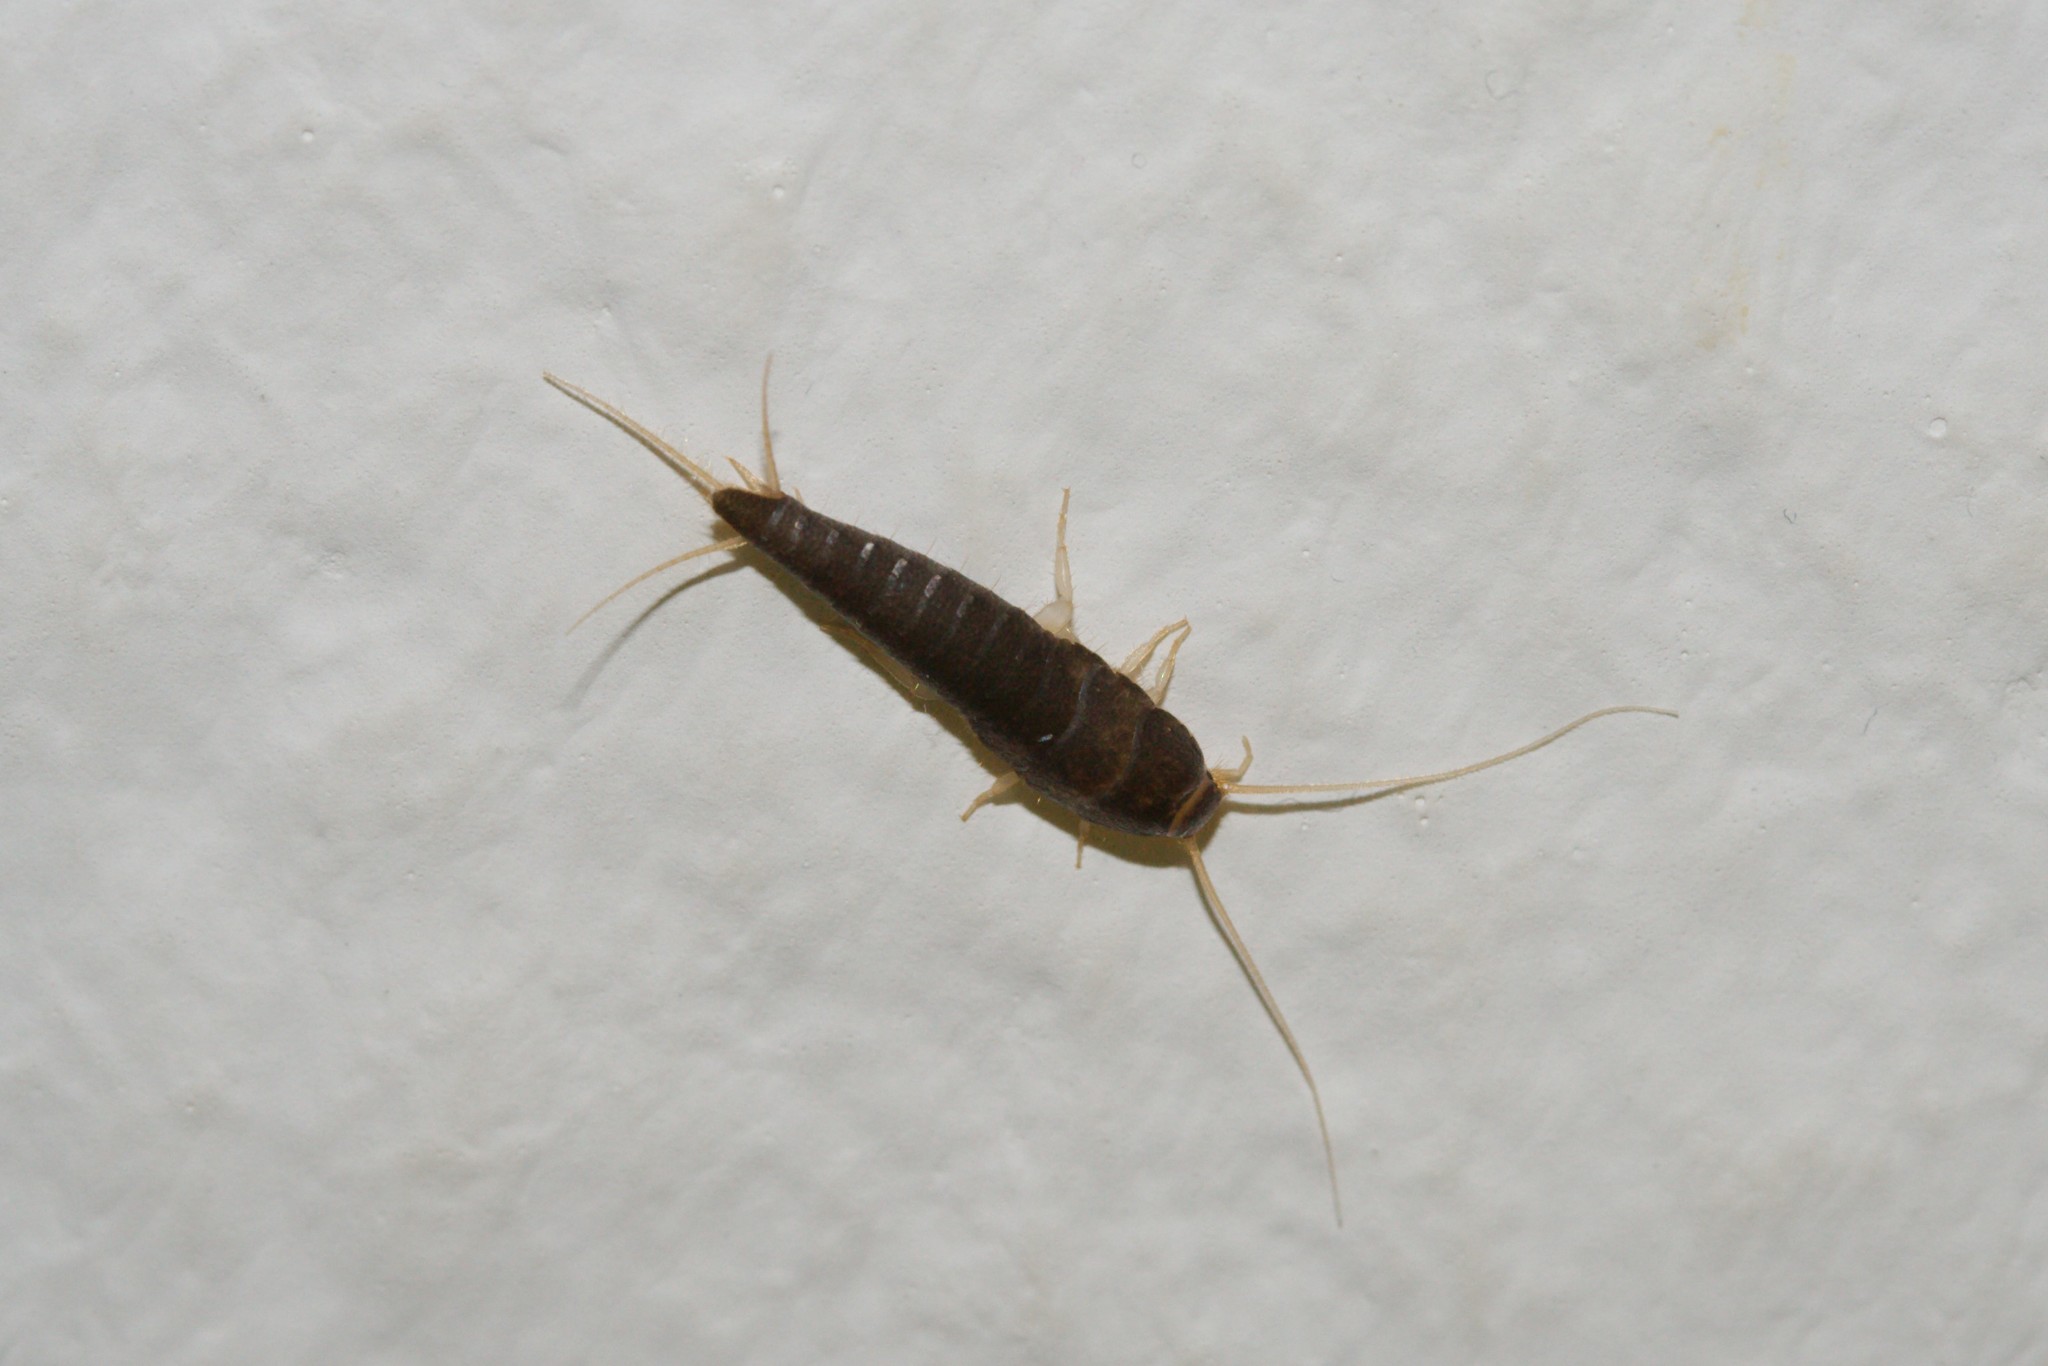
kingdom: Animalia
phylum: Arthropoda
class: Insecta
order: Zygentoma
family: Lepismatidae
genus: Lepisma
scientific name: Lepisma saccharinum
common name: Silverfish
